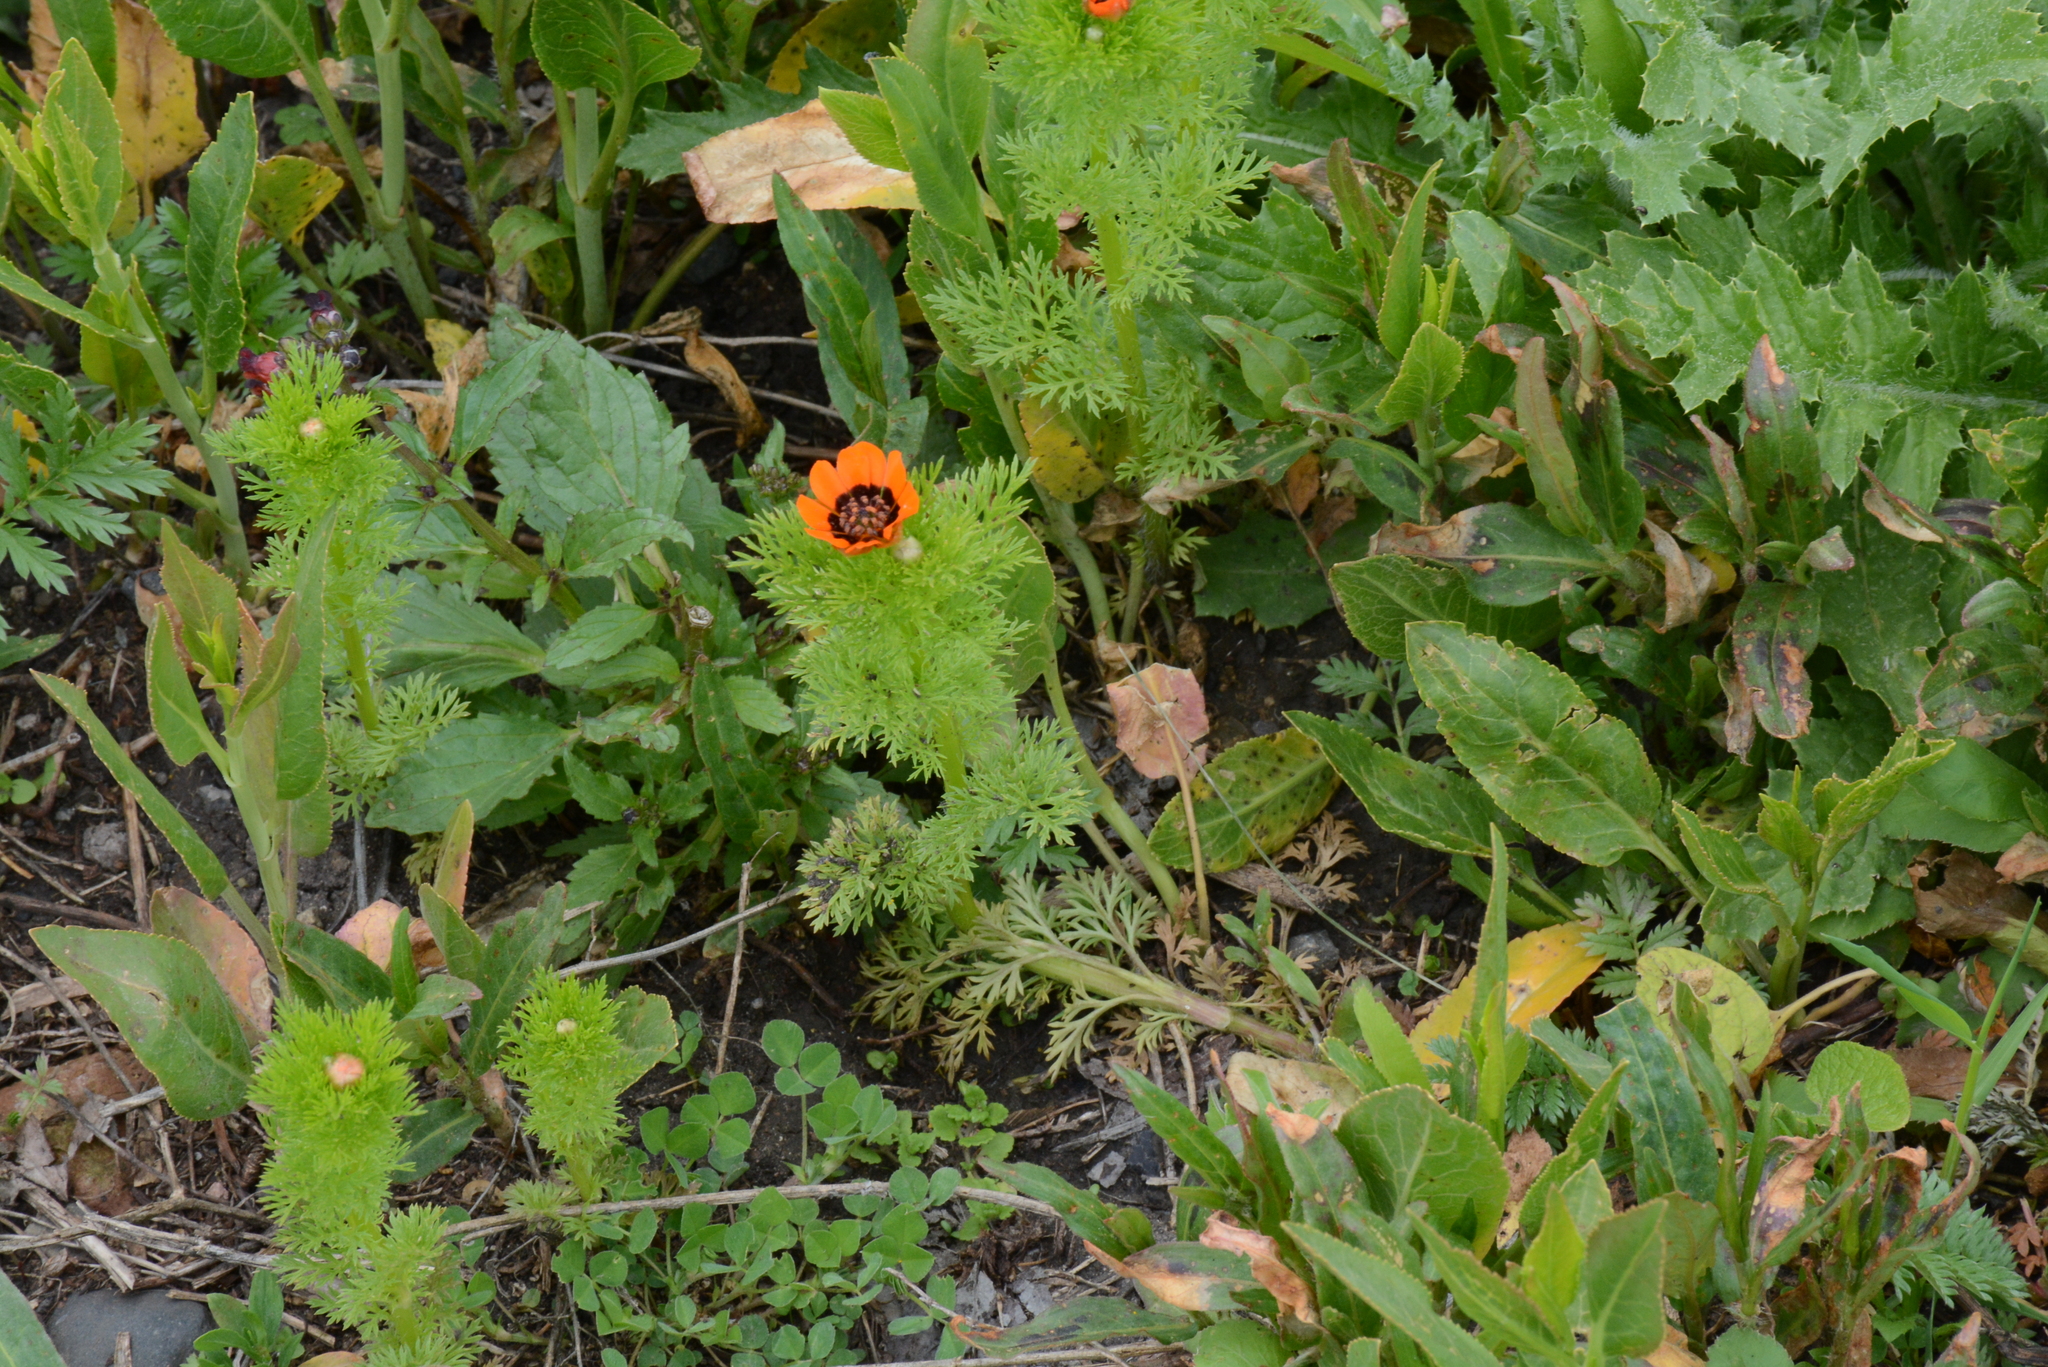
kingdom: Plantae
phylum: Tracheophyta
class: Magnoliopsida
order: Ranunculales
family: Ranunculaceae
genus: Adonis
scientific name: Adonis aestivalis
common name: Summer pheasant's-eye
